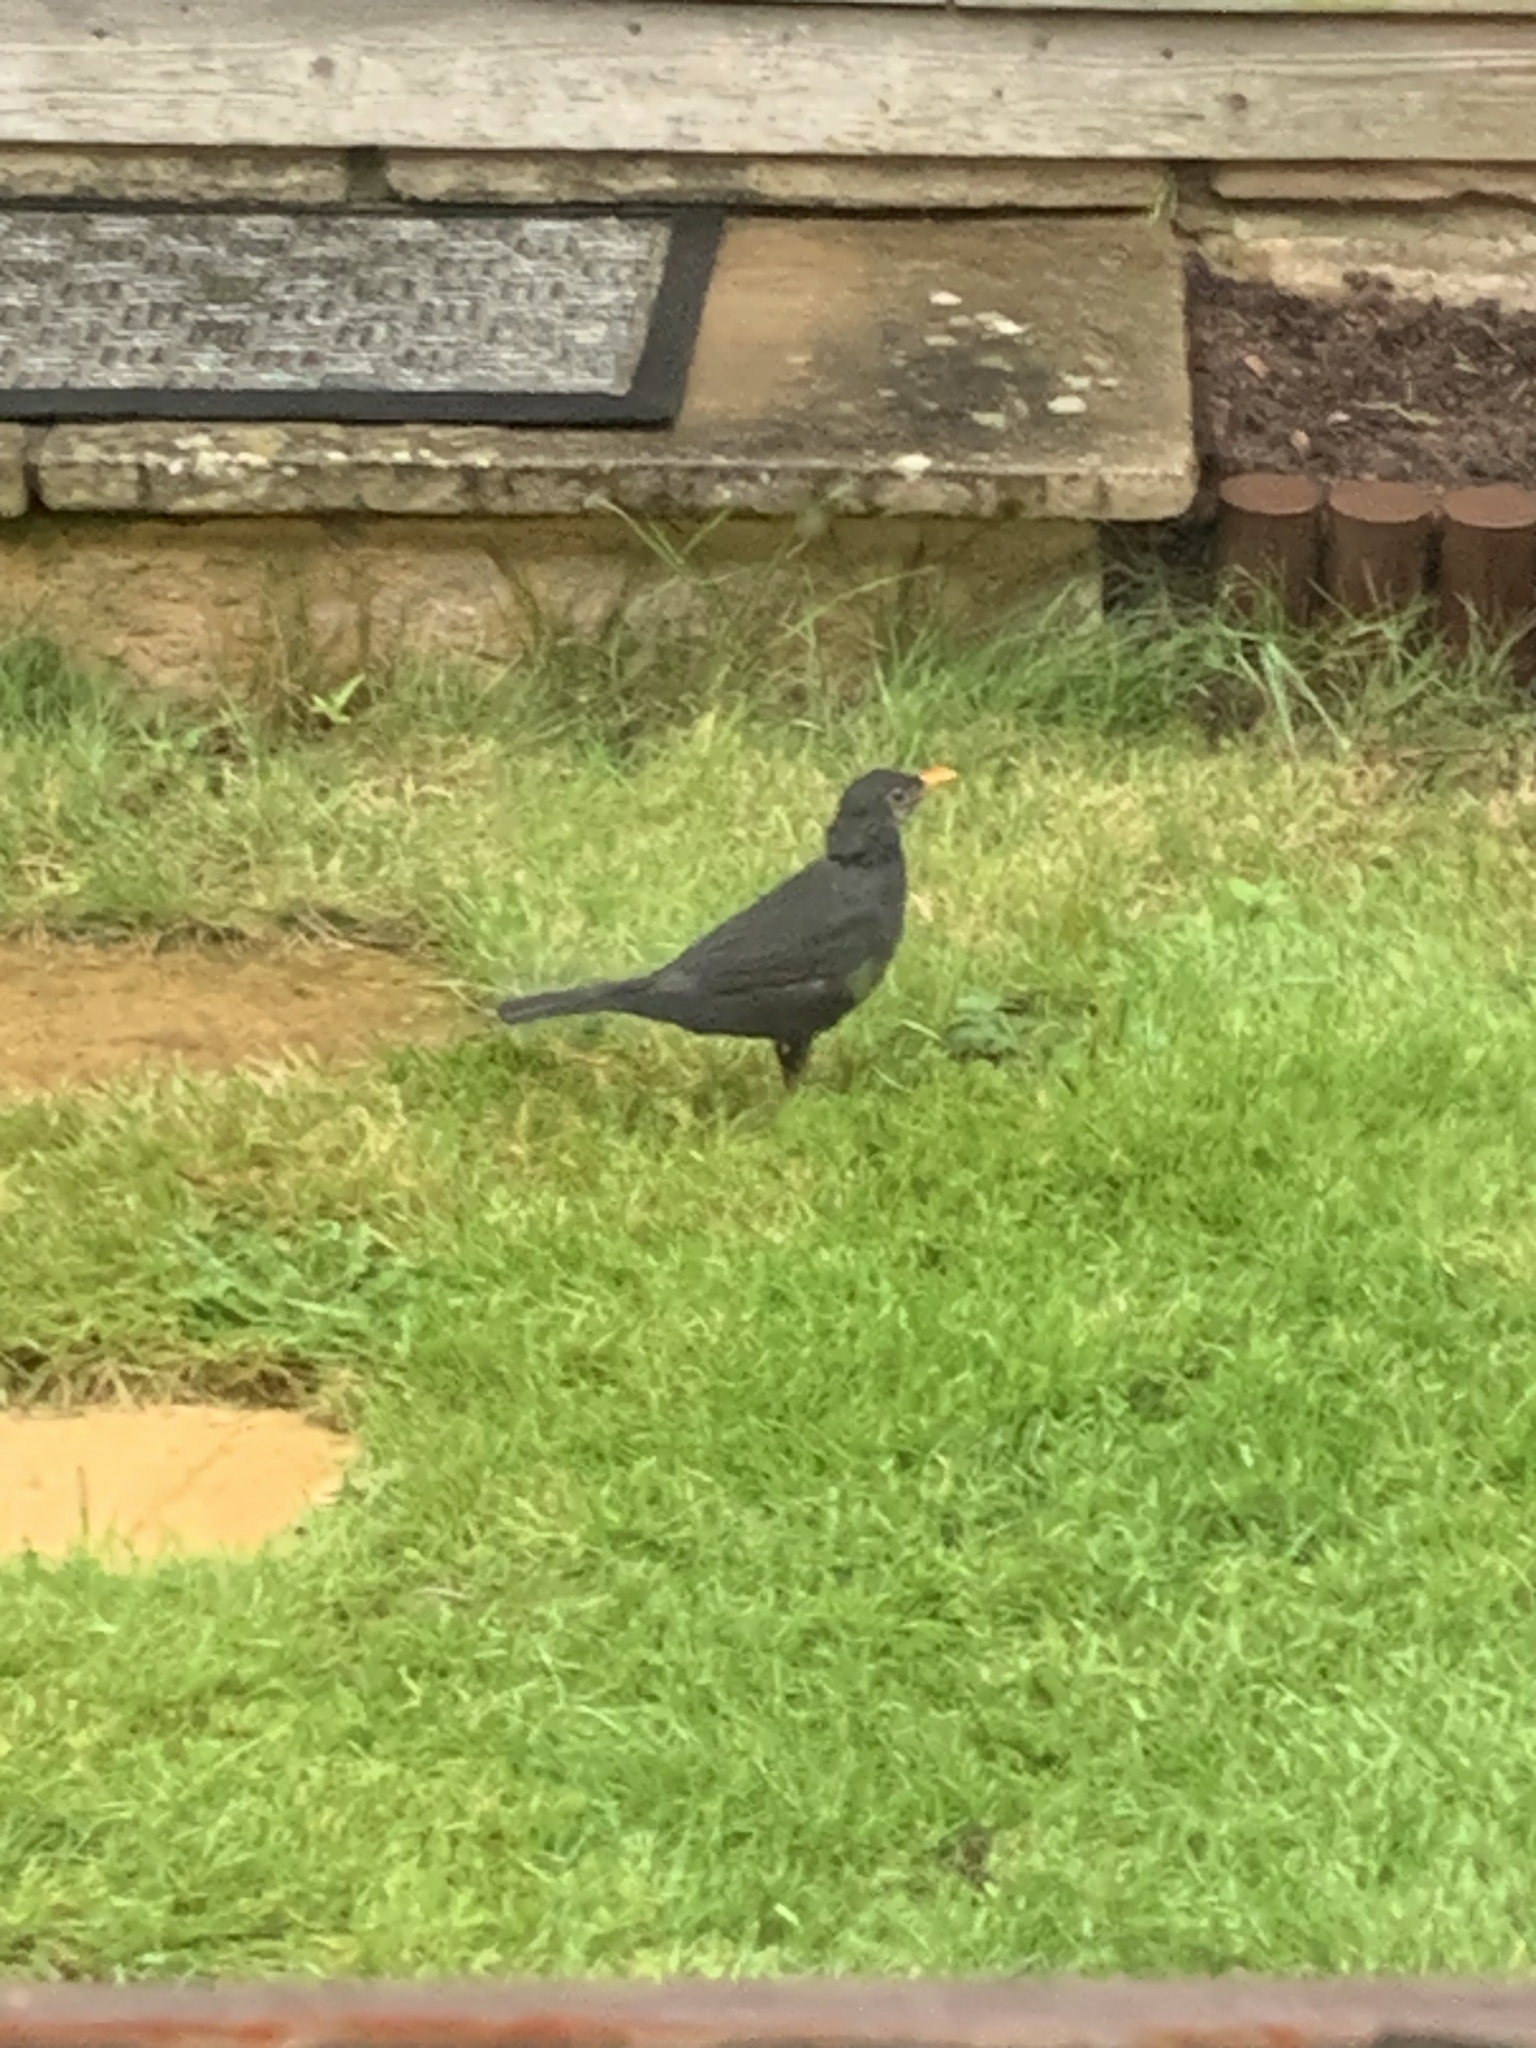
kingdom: Animalia
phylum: Chordata
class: Aves
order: Passeriformes
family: Turdidae
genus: Turdus
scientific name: Turdus merula
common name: Common blackbird
